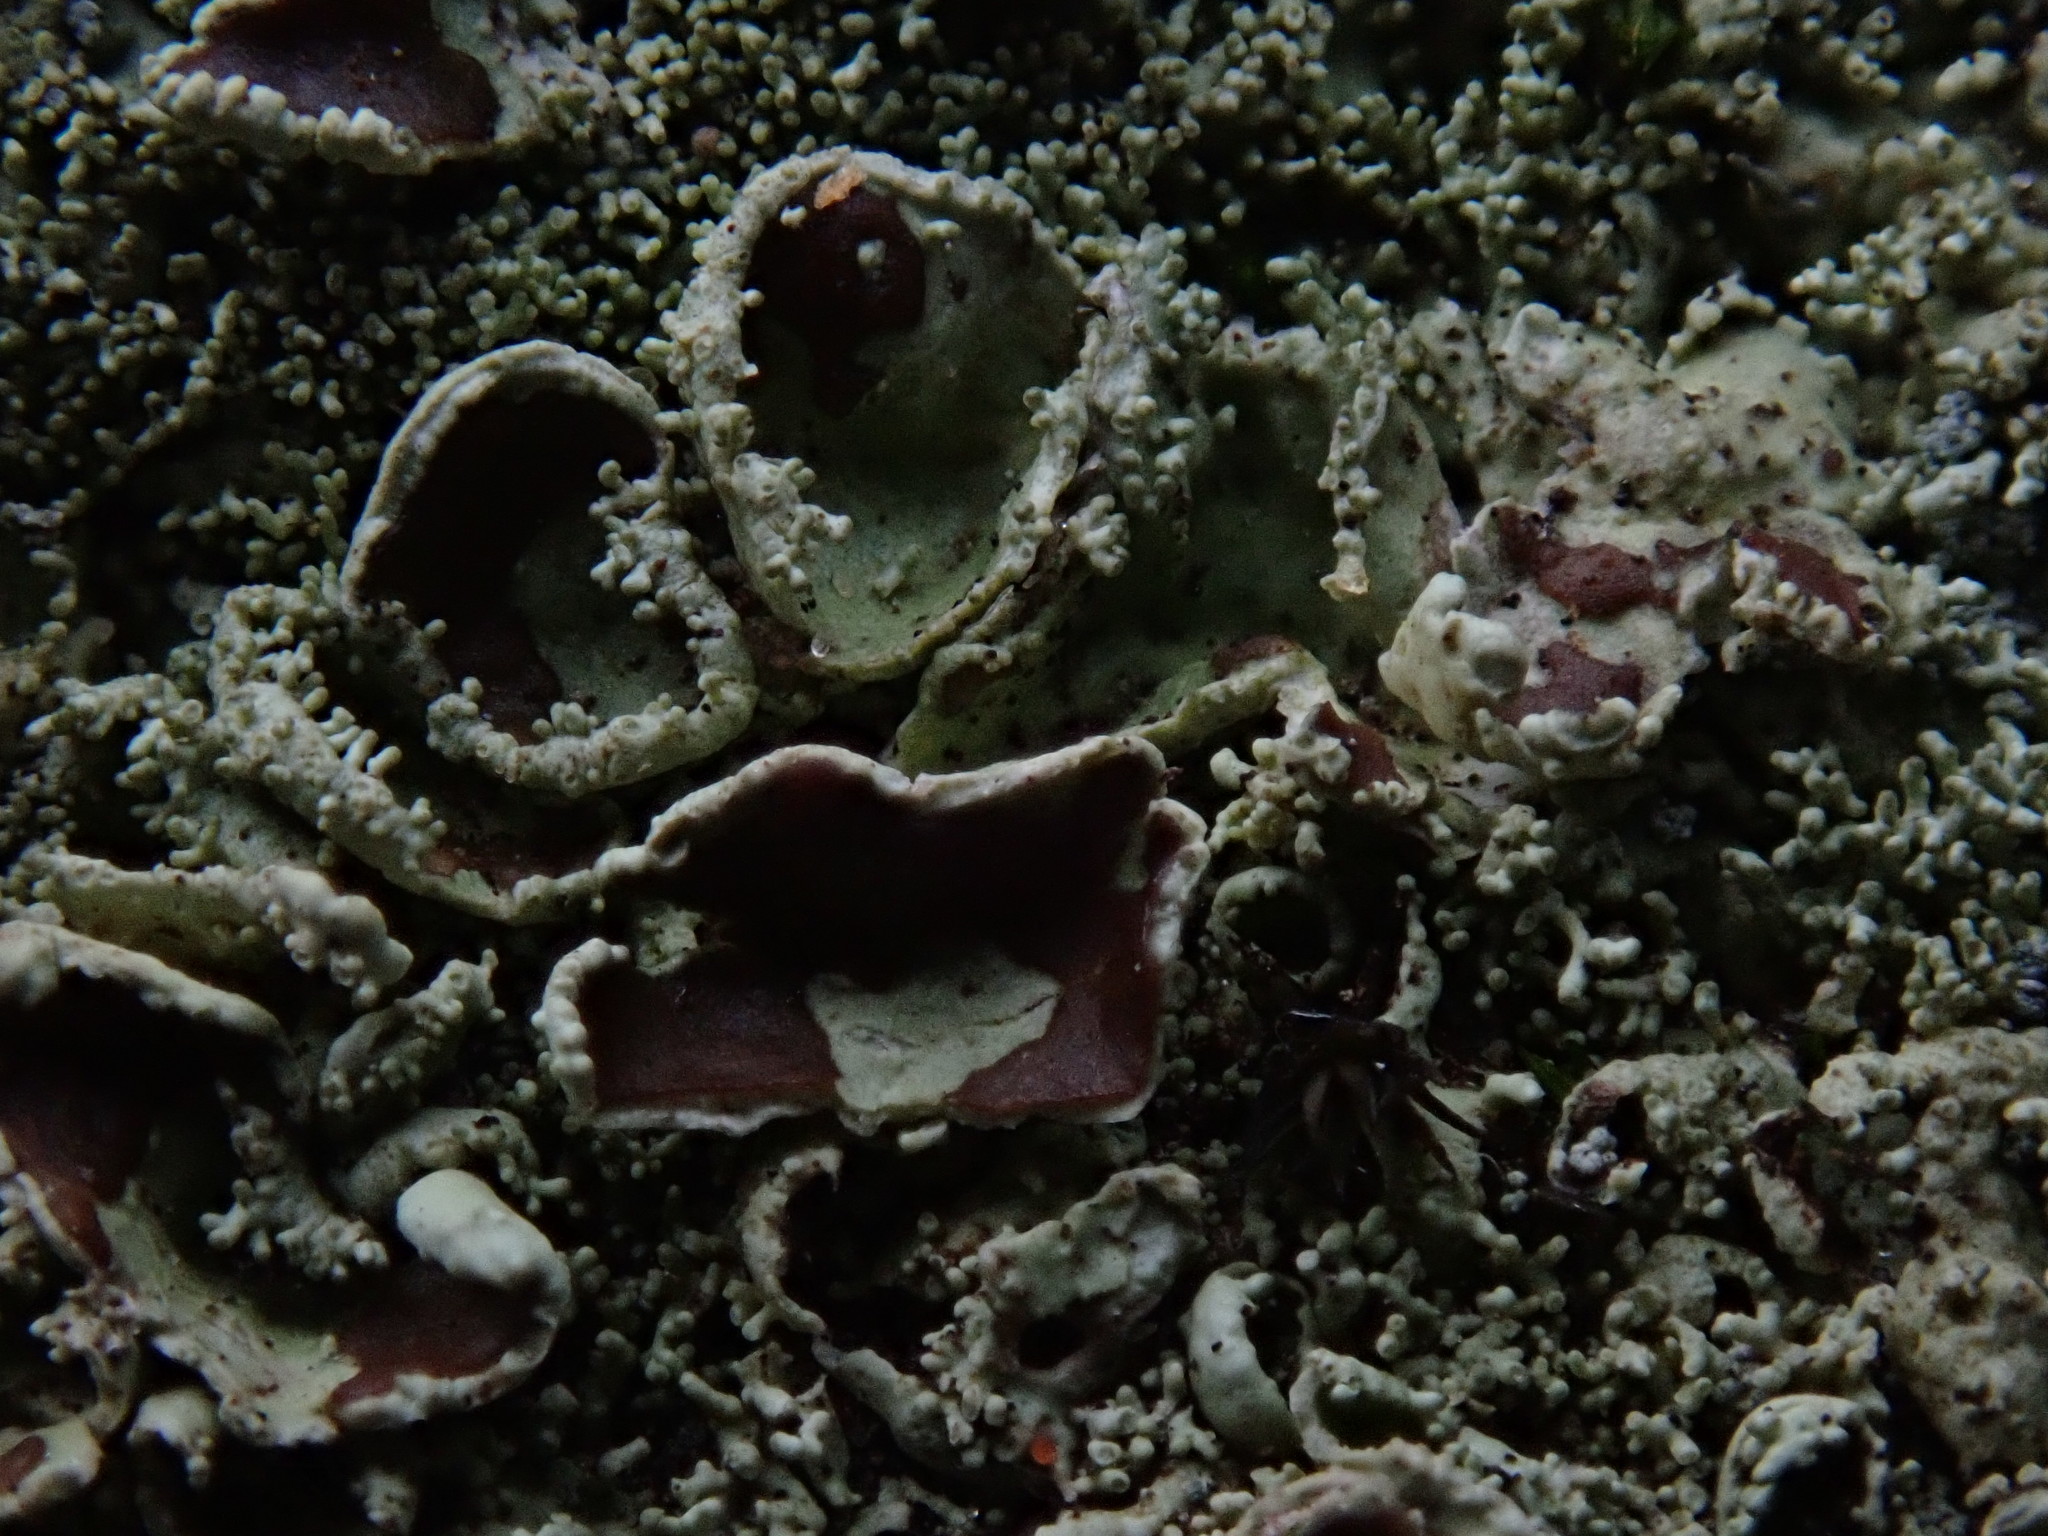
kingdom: Fungi
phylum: Ascomycota
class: Lecanoromycetes
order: Lecanorales
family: Parmeliaceae
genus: Xanthoparmelia
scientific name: Xanthoparmelia cumberlandia
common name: Cumberland rock shield
